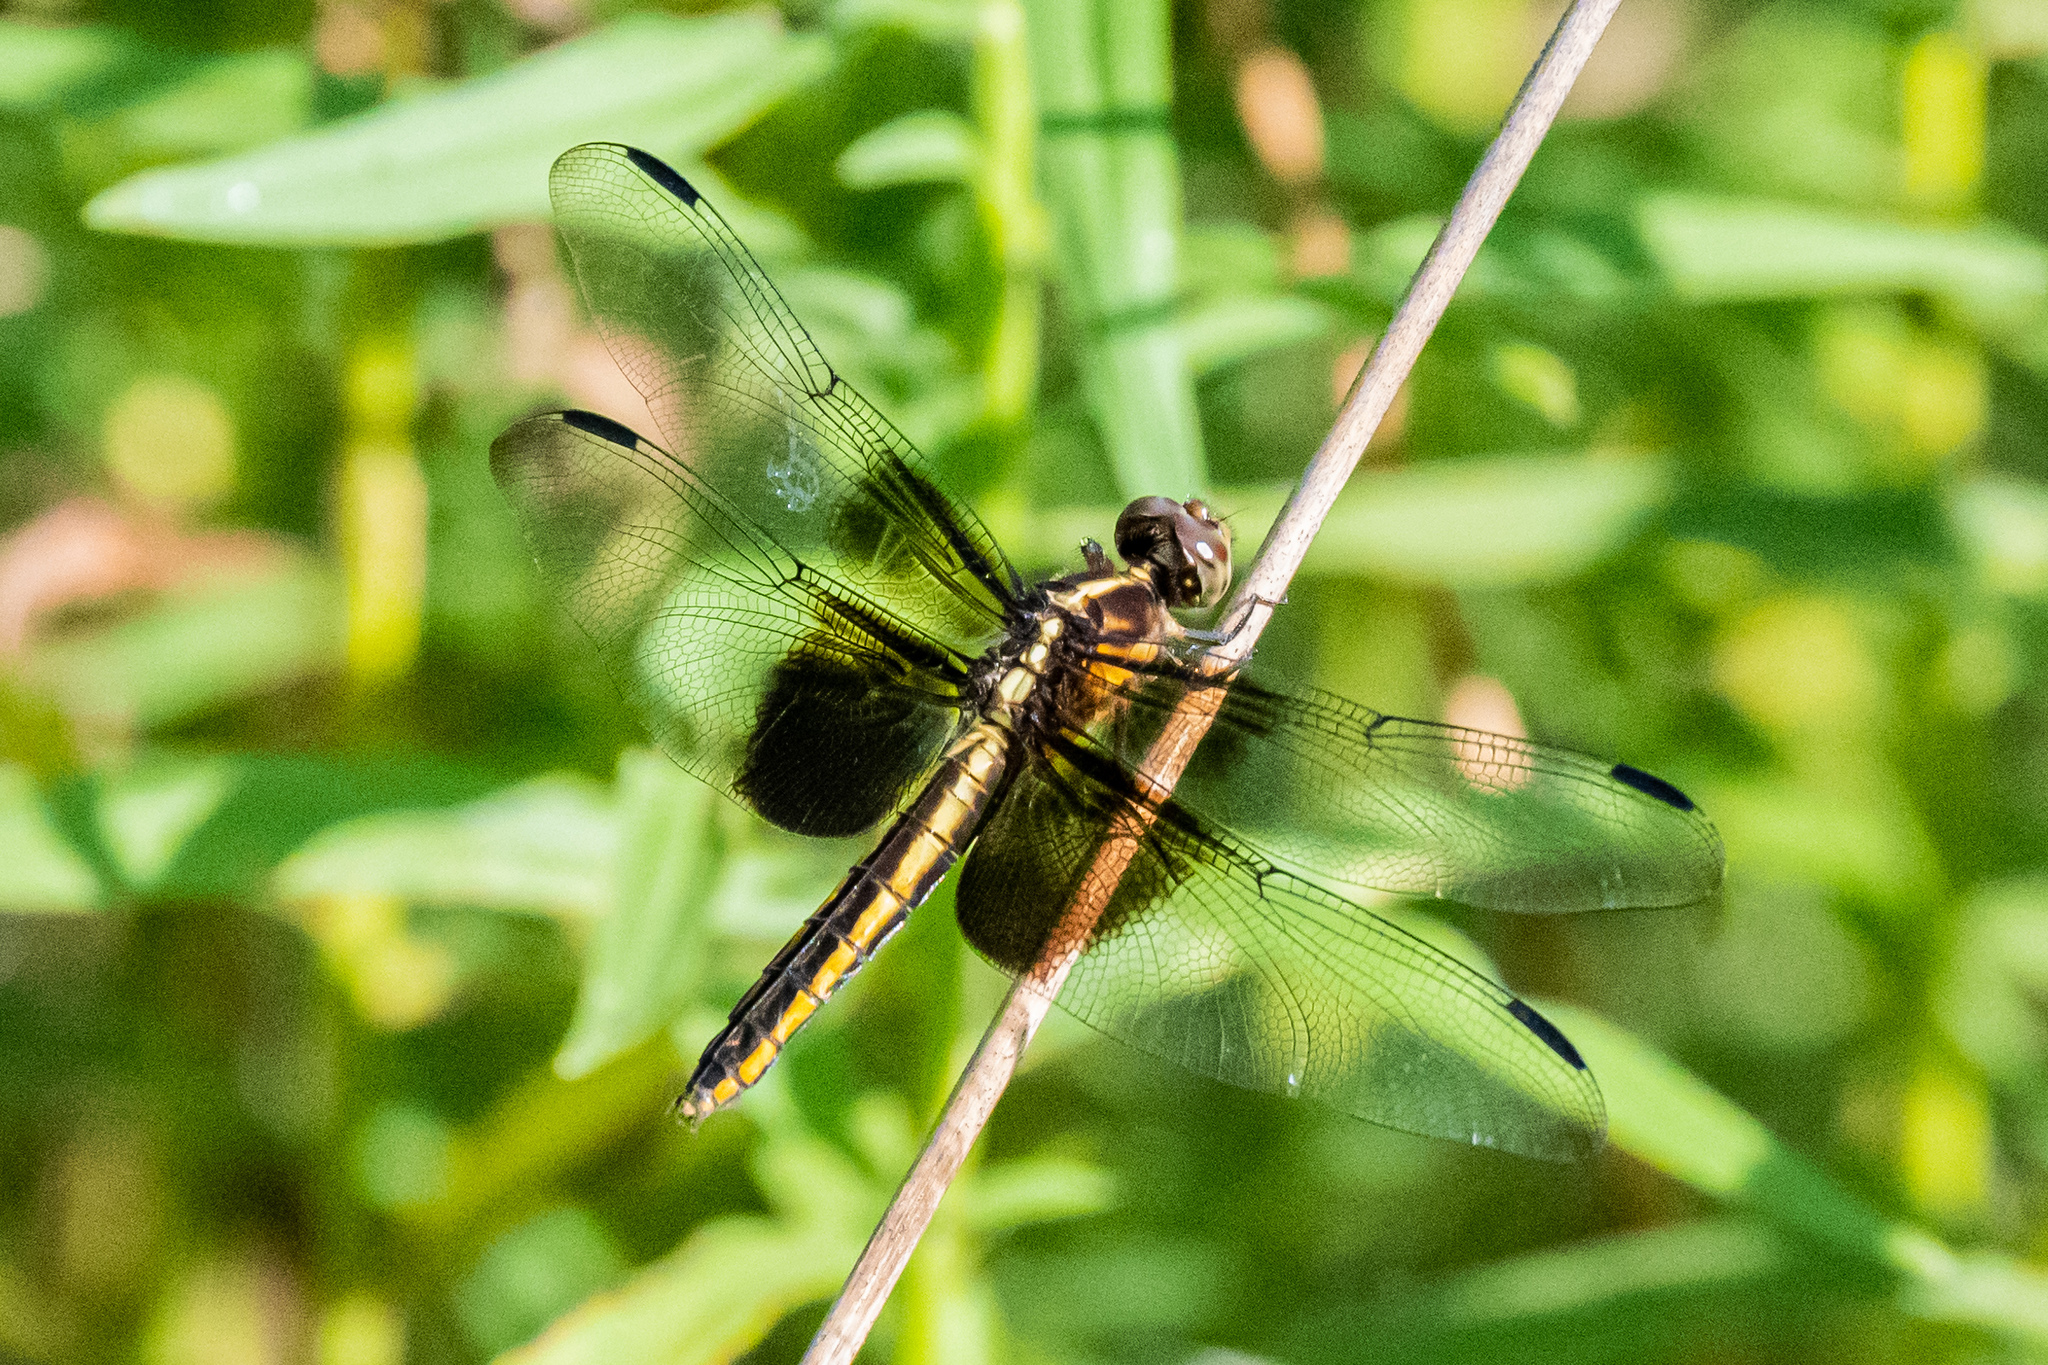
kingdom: Animalia
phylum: Arthropoda
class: Insecta
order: Odonata
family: Libellulidae
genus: Libellula
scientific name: Libellula luctuosa
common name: Widow skimmer
